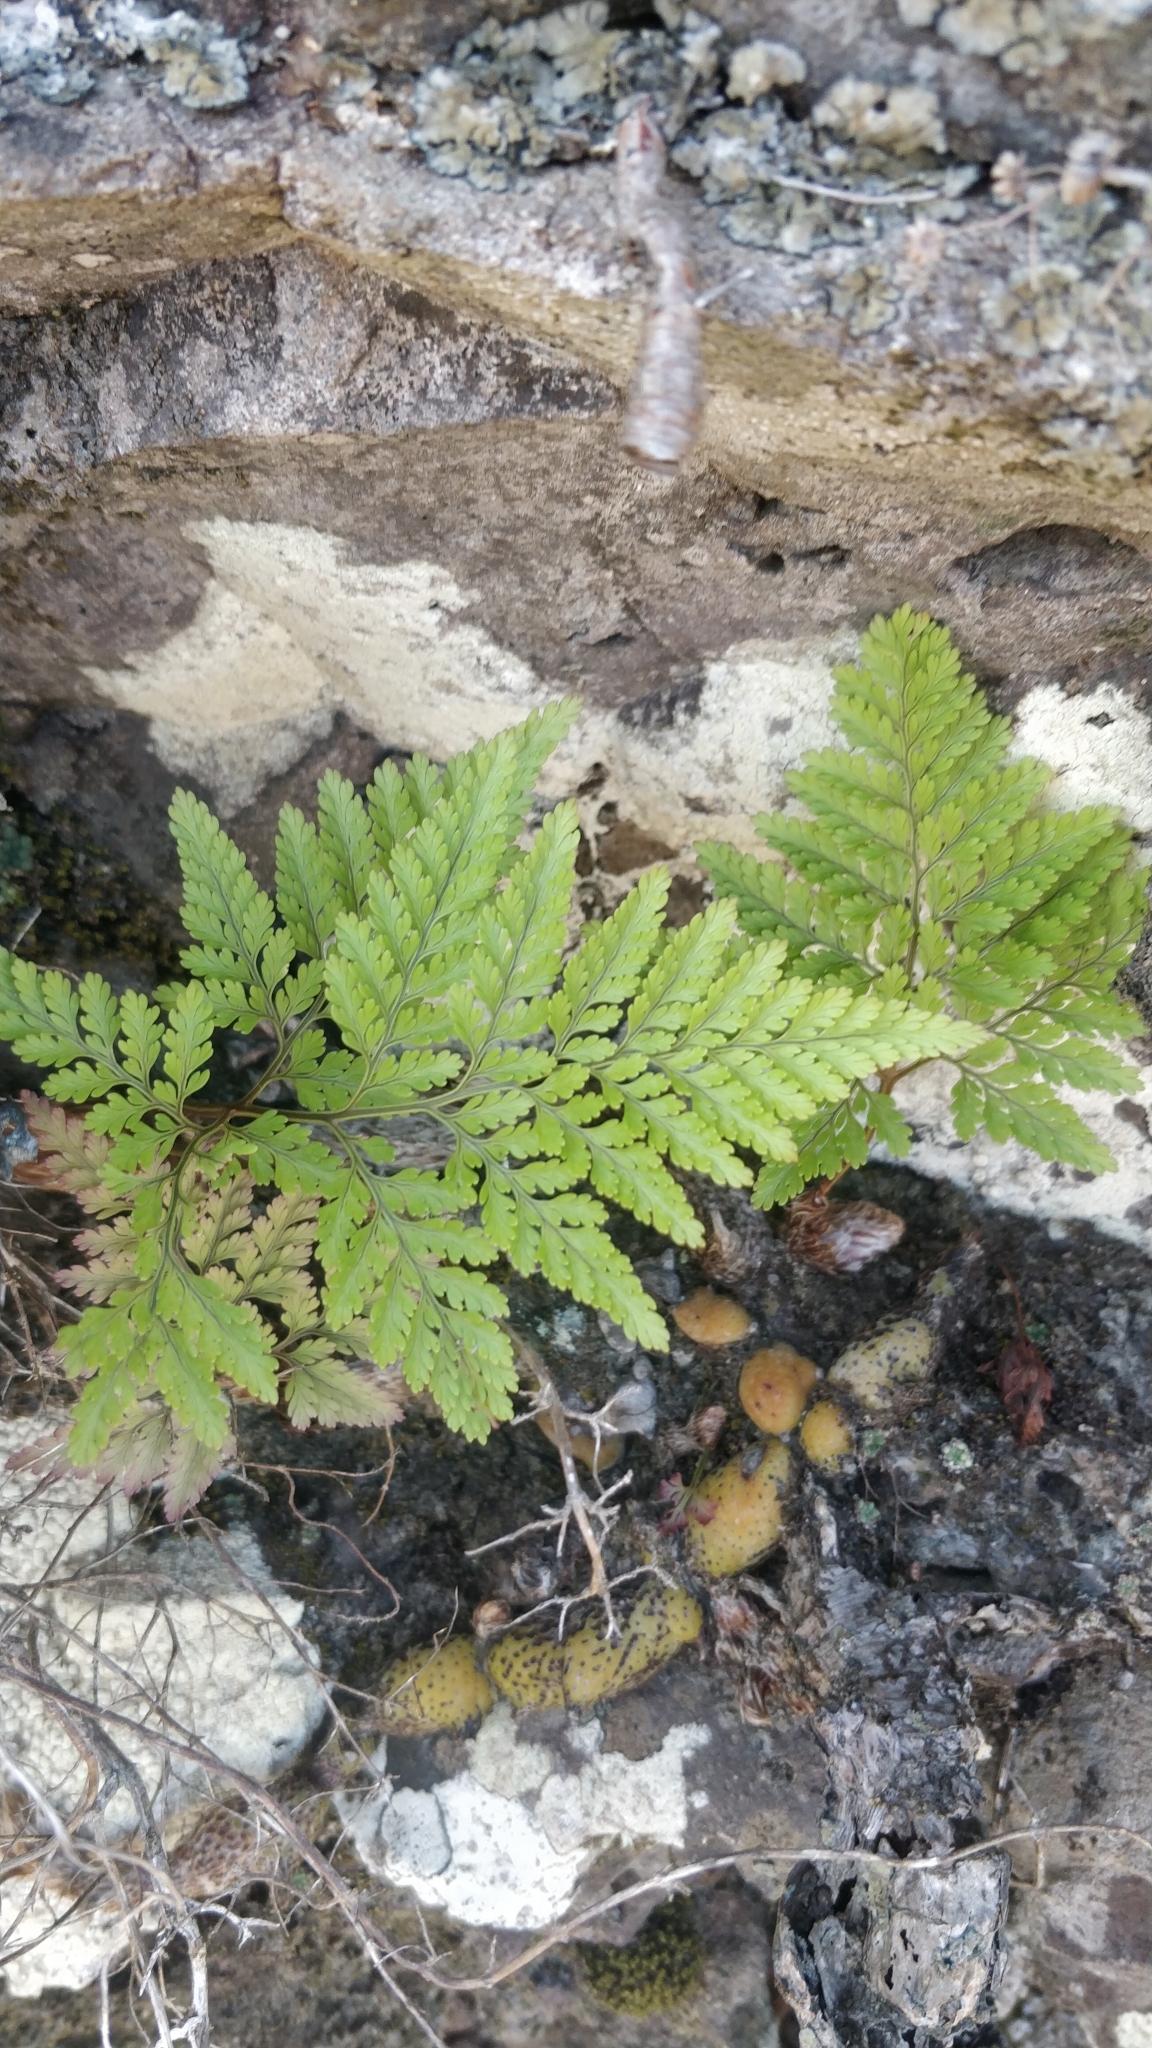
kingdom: Plantae
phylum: Tracheophyta
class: Polypodiopsida
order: Polypodiales
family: Davalliaceae
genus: Davallia
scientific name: Davallia canariensis
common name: Hare's-foot fern
